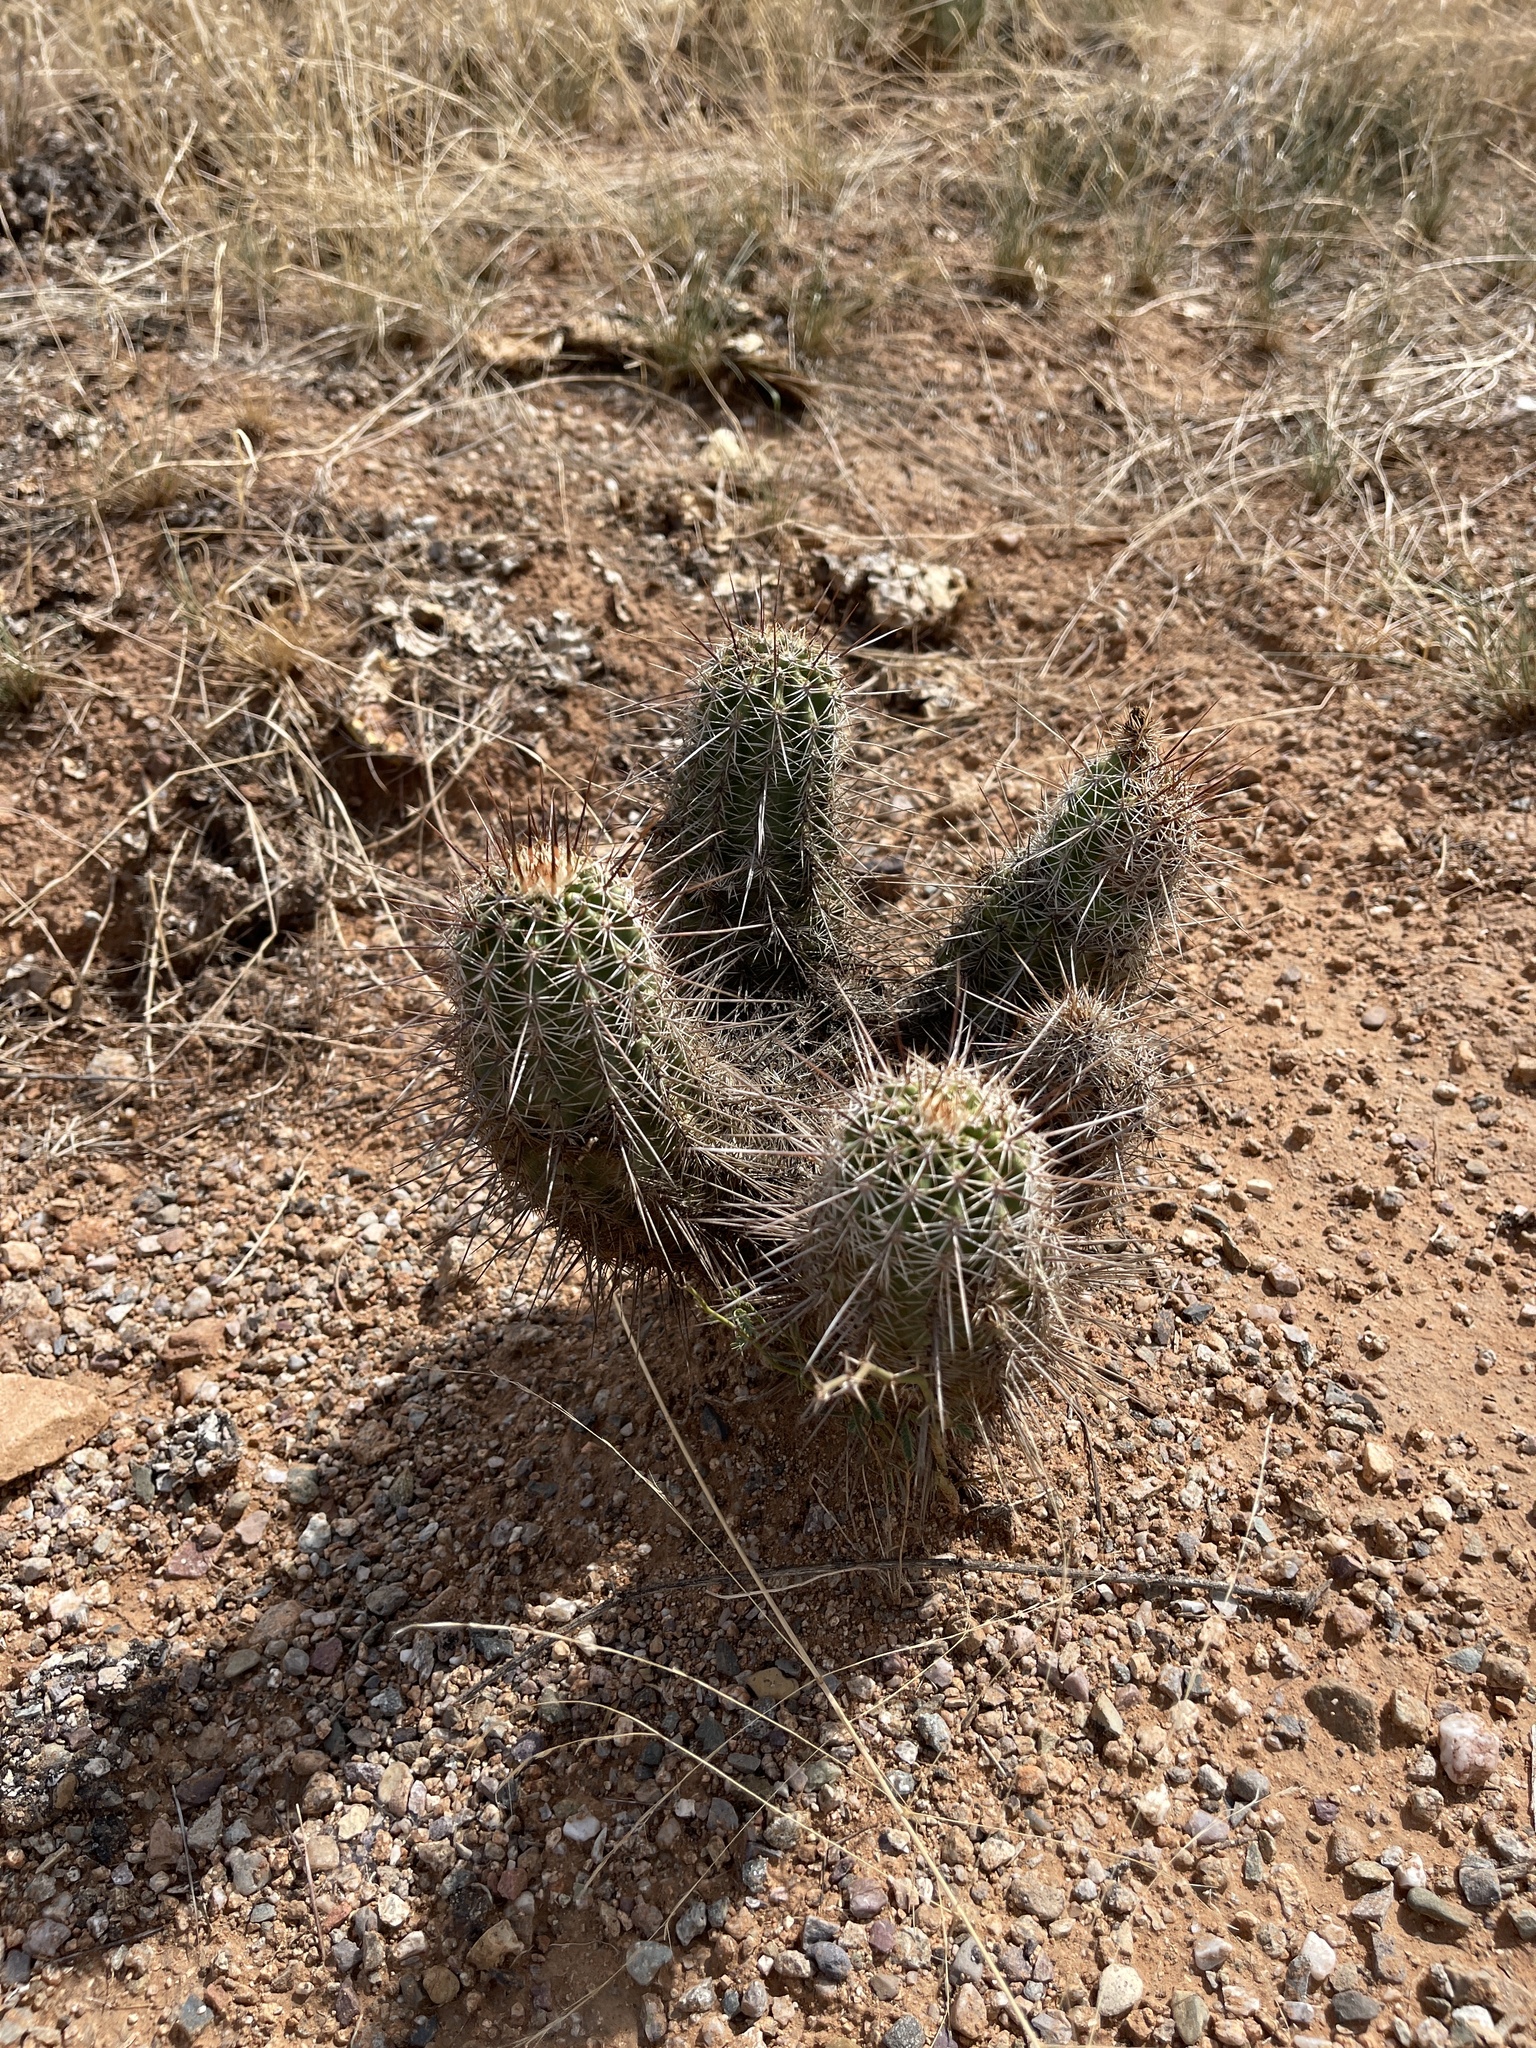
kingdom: Plantae
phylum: Tracheophyta
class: Magnoliopsida
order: Caryophyllales
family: Cactaceae
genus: Echinocereus
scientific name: Echinocereus fasciculatus
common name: Bundle hedgehog
